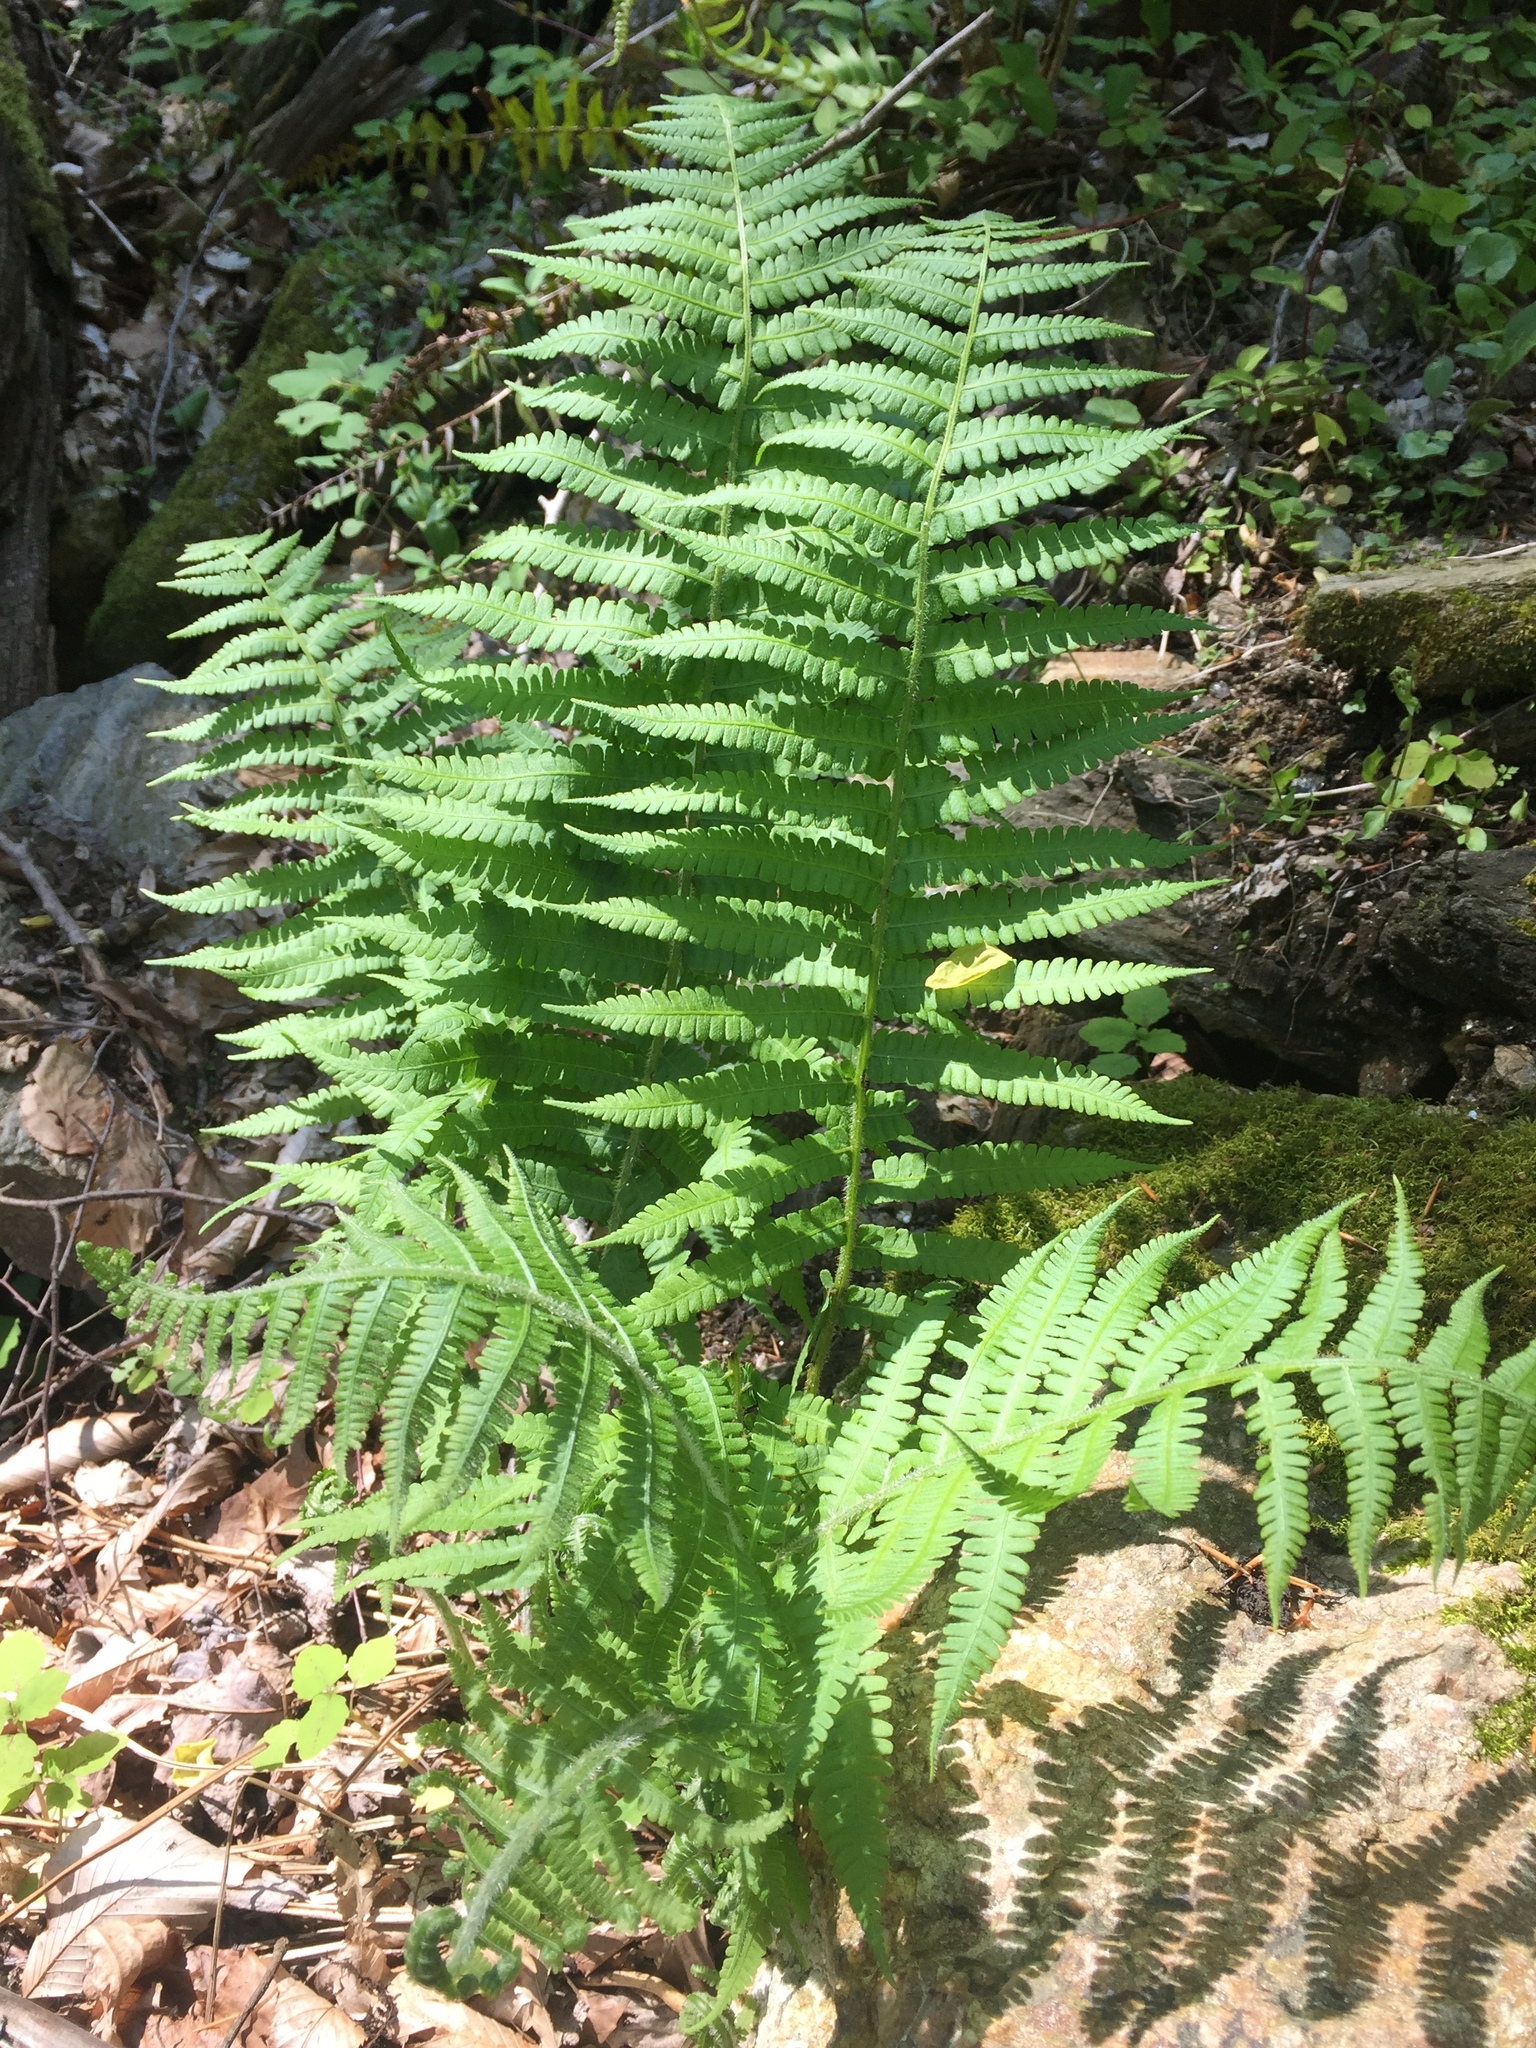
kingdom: Plantae
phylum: Tracheophyta
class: Polypodiopsida
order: Polypodiales
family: Athyriaceae
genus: Deparia
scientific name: Deparia acrostichoides
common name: Silver false spleenwort
